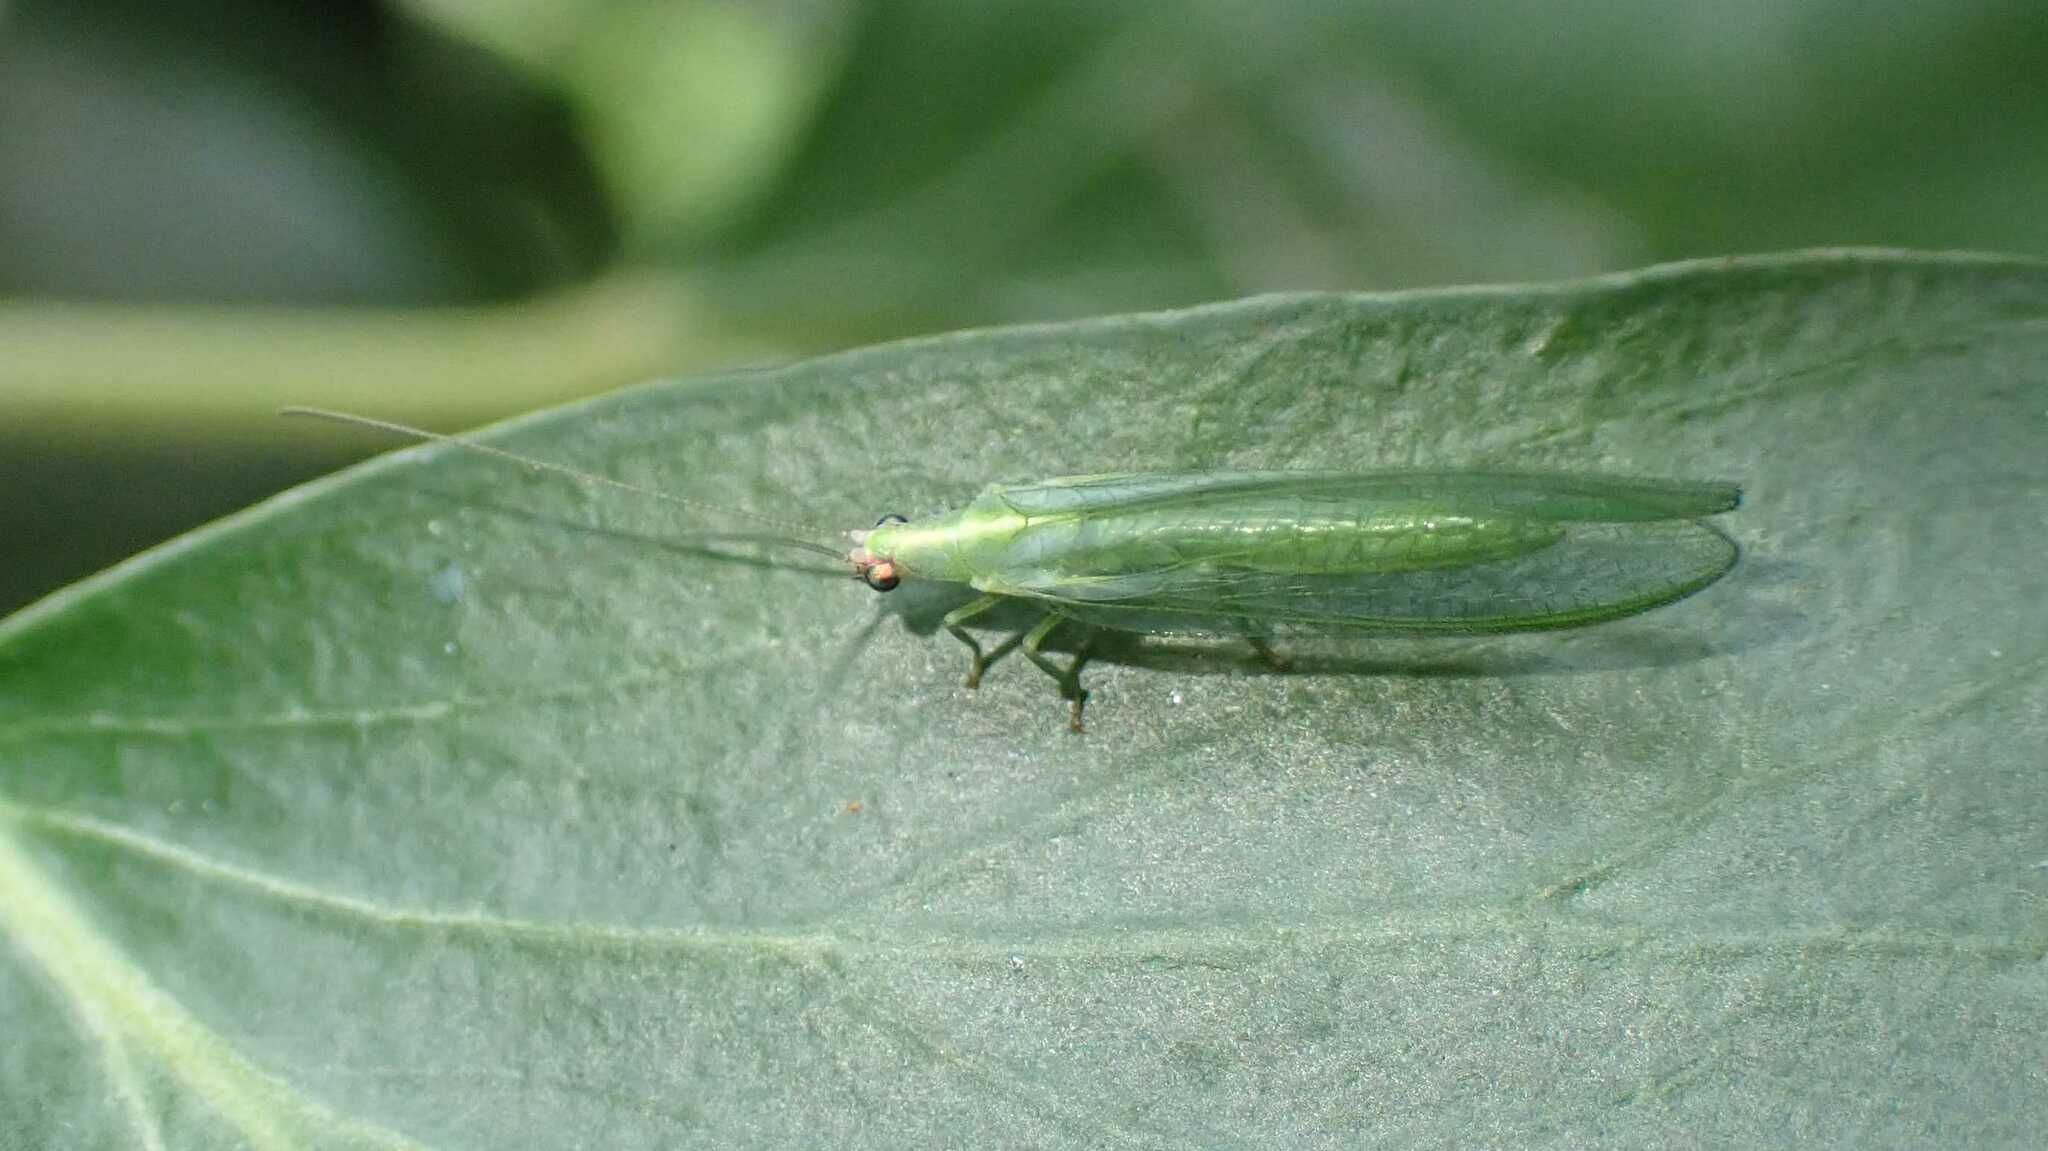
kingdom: Animalia
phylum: Arthropoda
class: Insecta
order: Neuroptera
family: Chrysopidae
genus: Chrysoperla
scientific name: Chrysoperla
